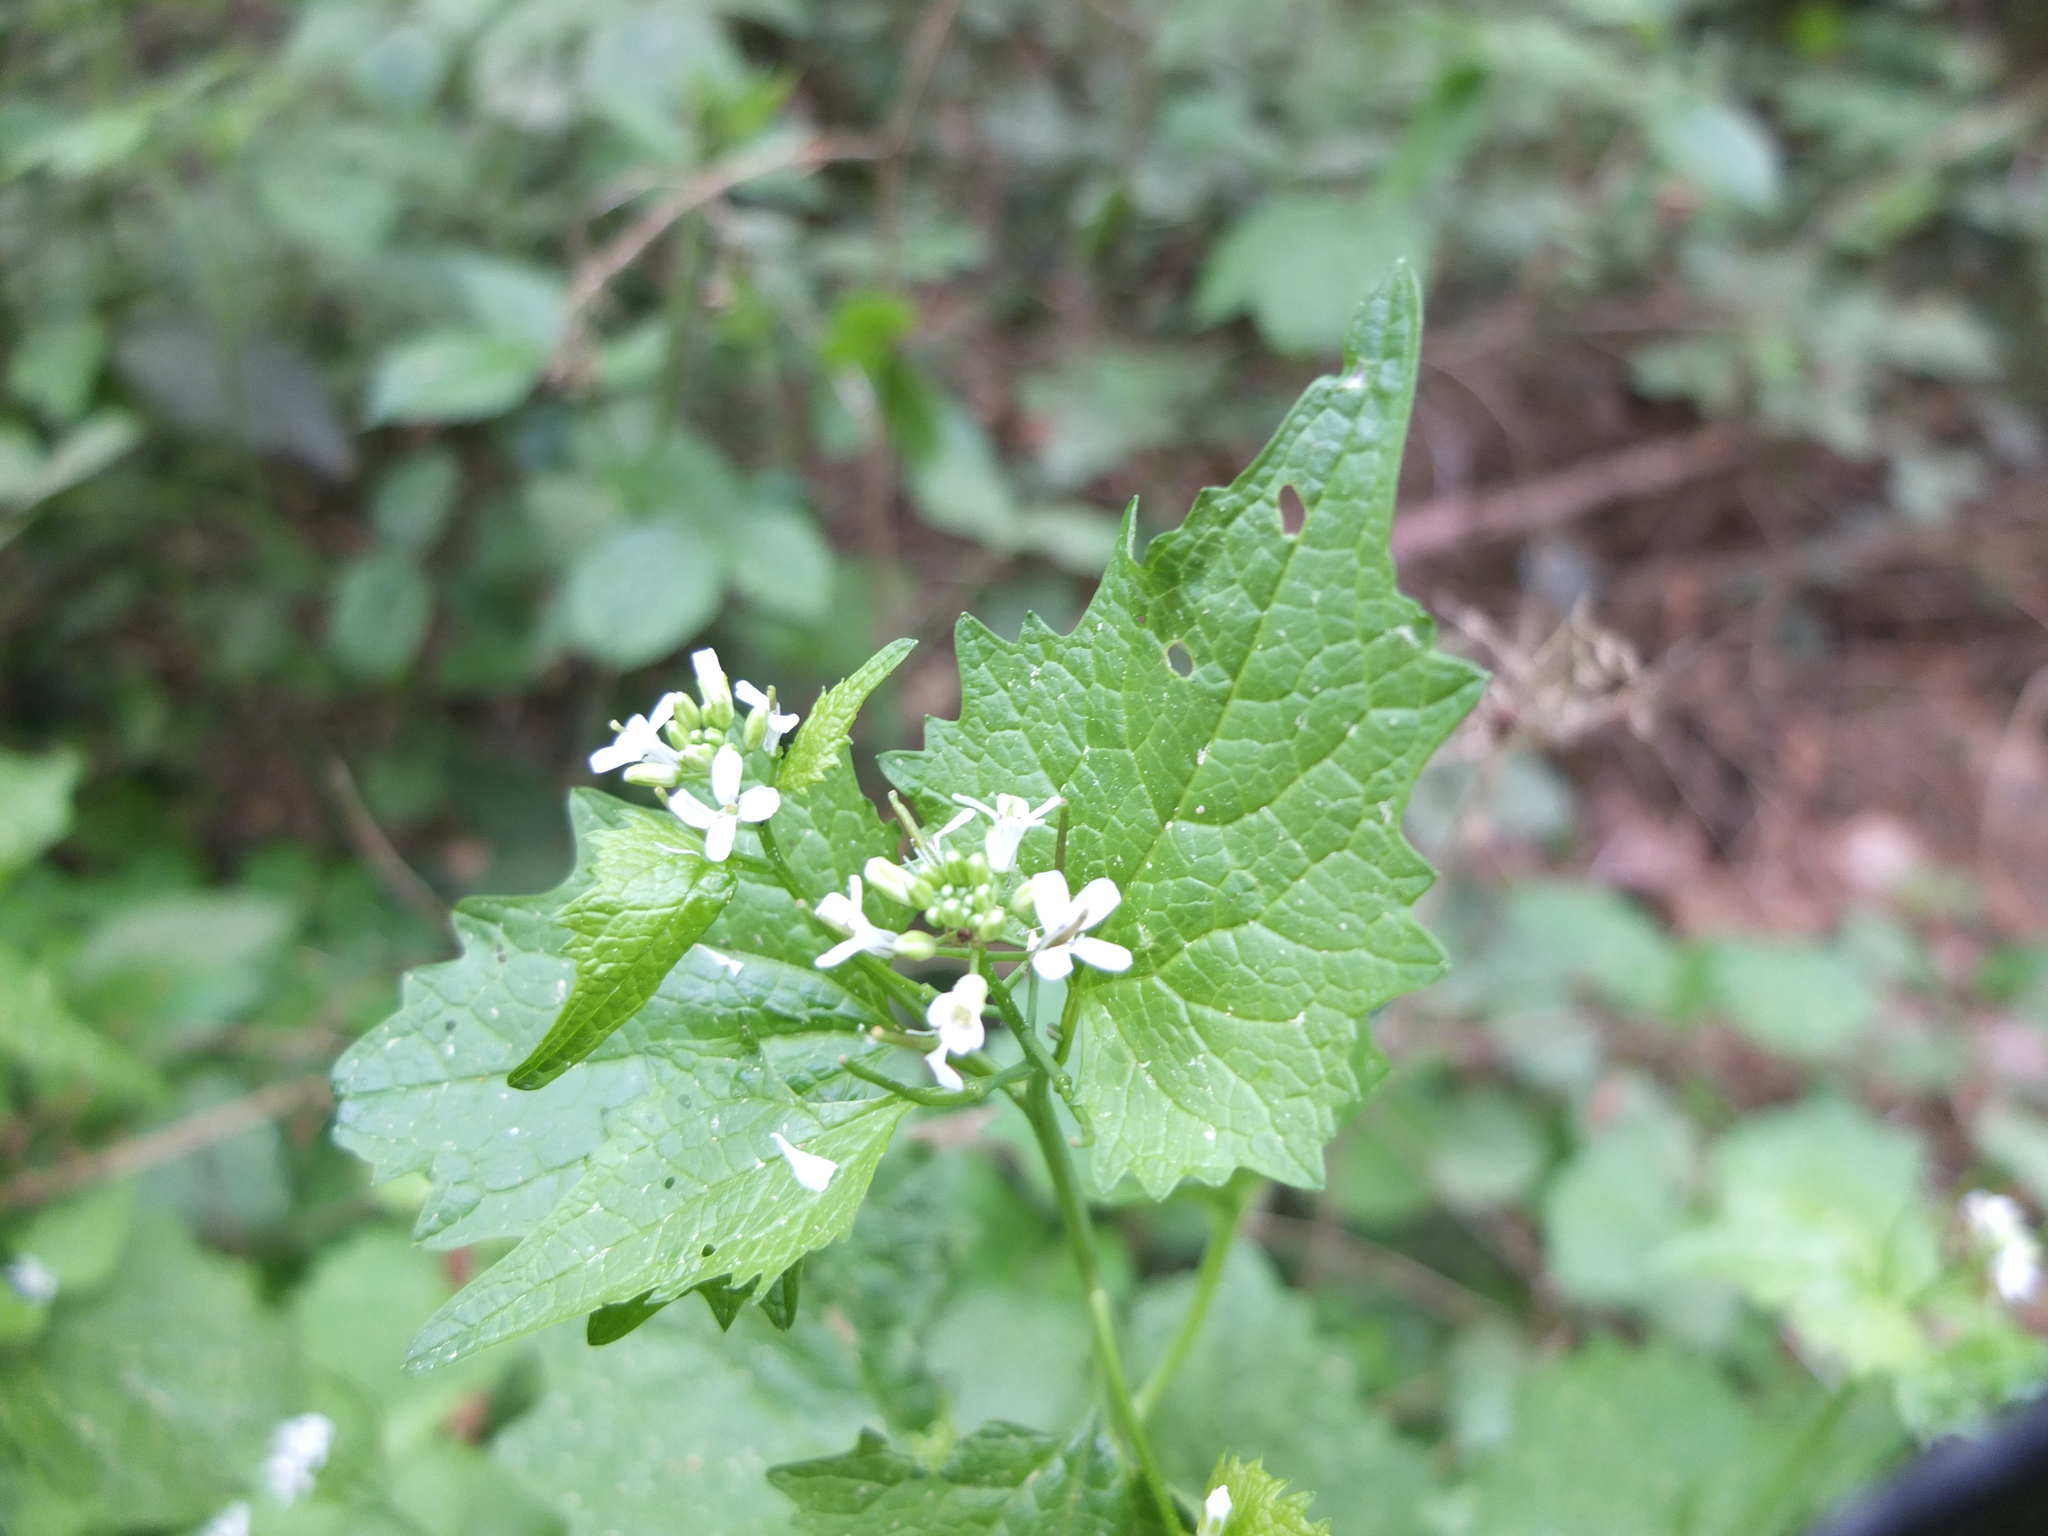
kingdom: Plantae
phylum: Tracheophyta
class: Magnoliopsida
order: Brassicales
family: Brassicaceae
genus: Alliaria
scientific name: Alliaria petiolata
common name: Garlic mustard
